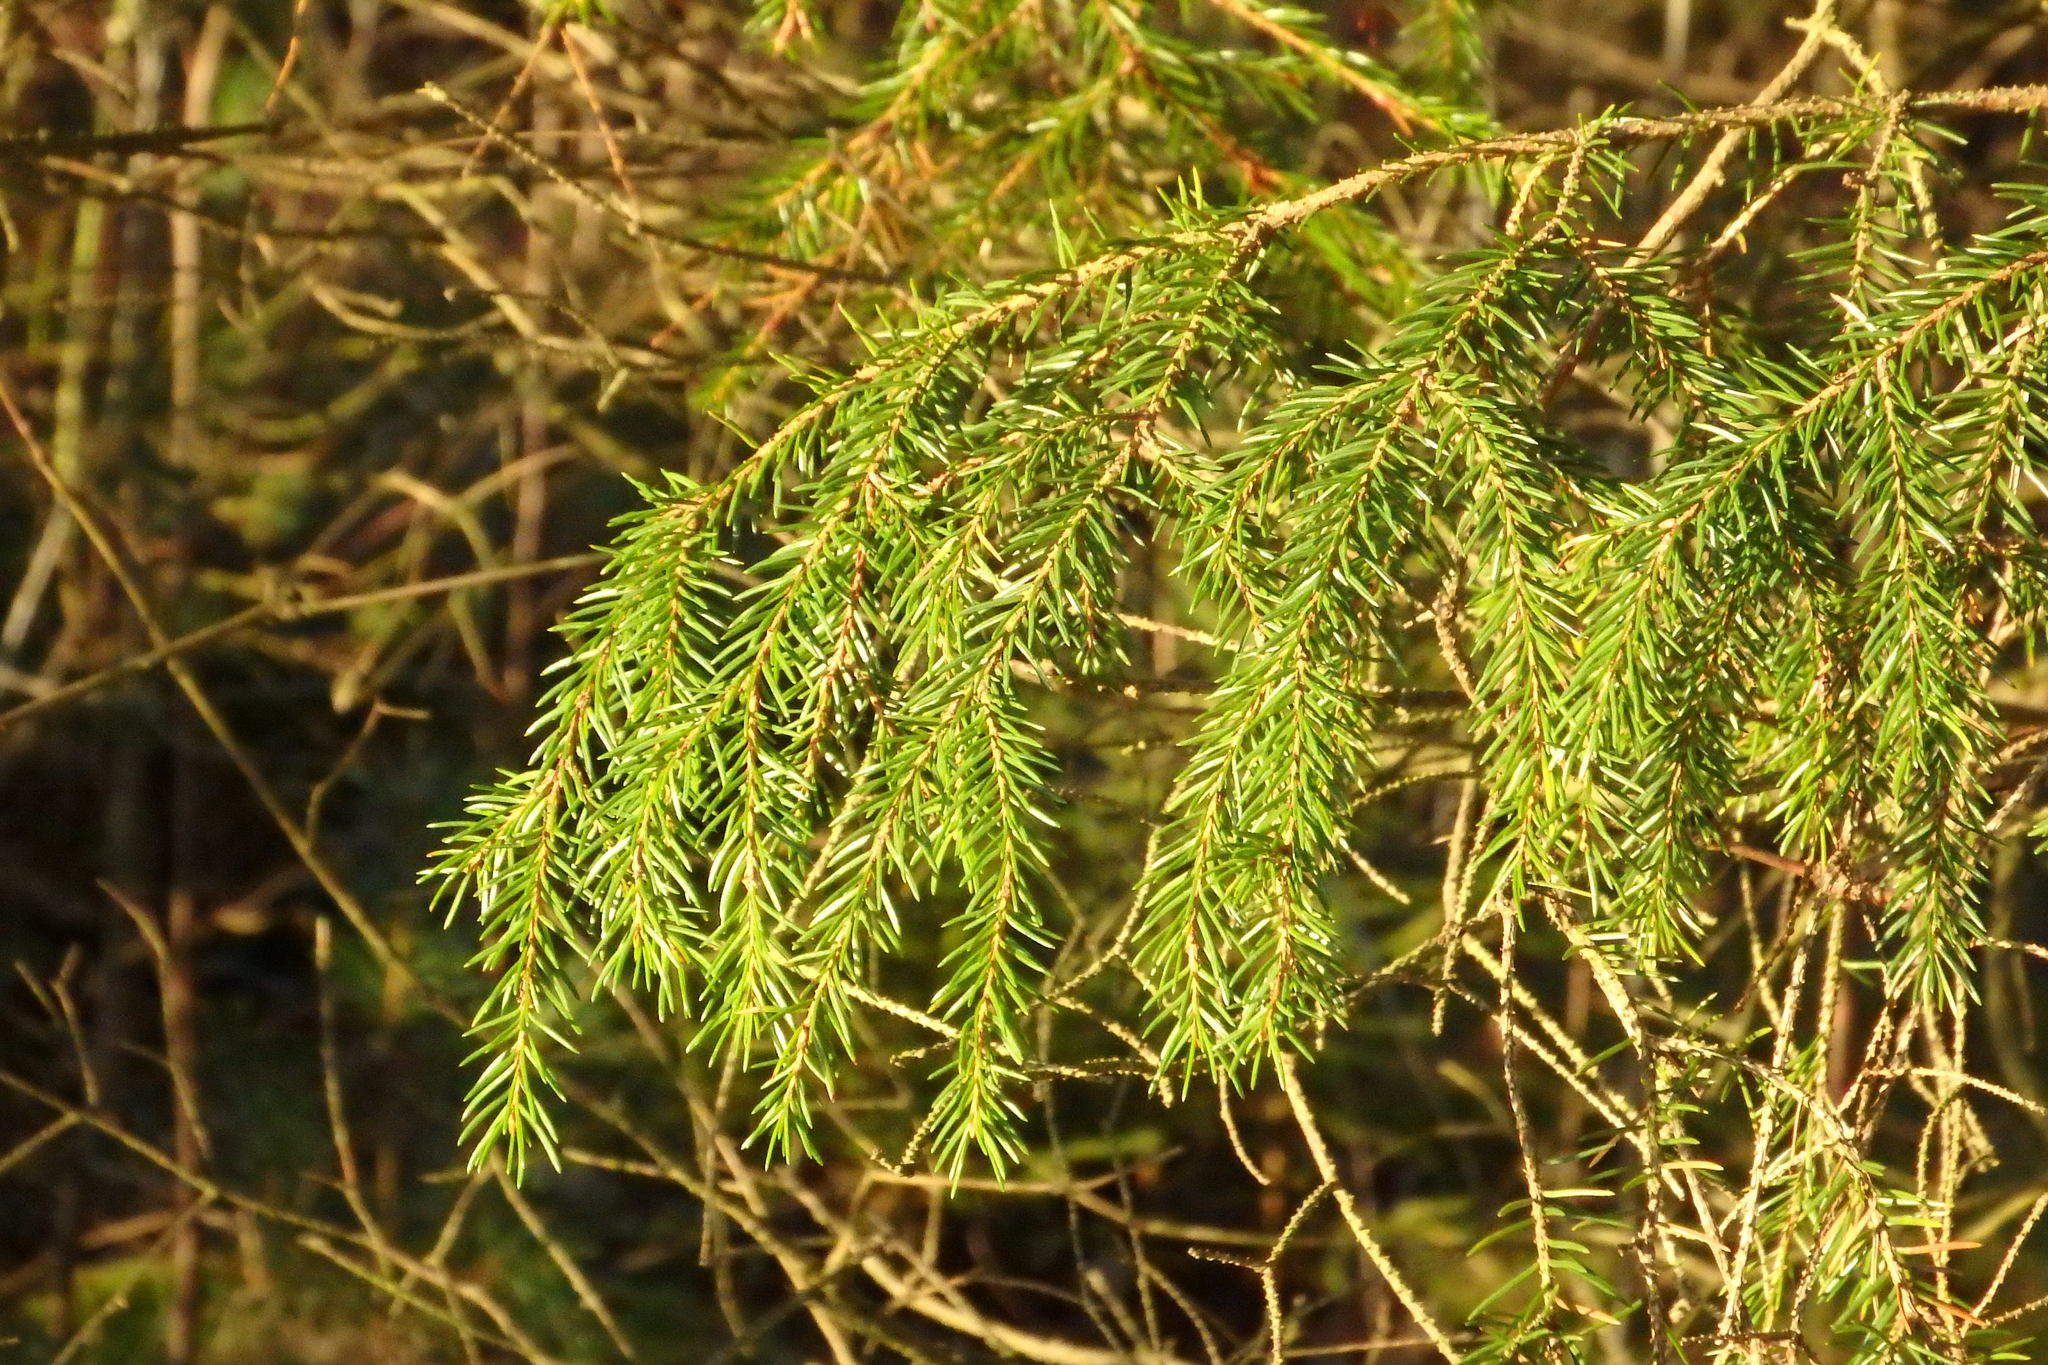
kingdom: Plantae
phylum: Tracheophyta
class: Pinopsida
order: Pinales
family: Pinaceae
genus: Picea
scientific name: Picea abies
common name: Norway spruce
